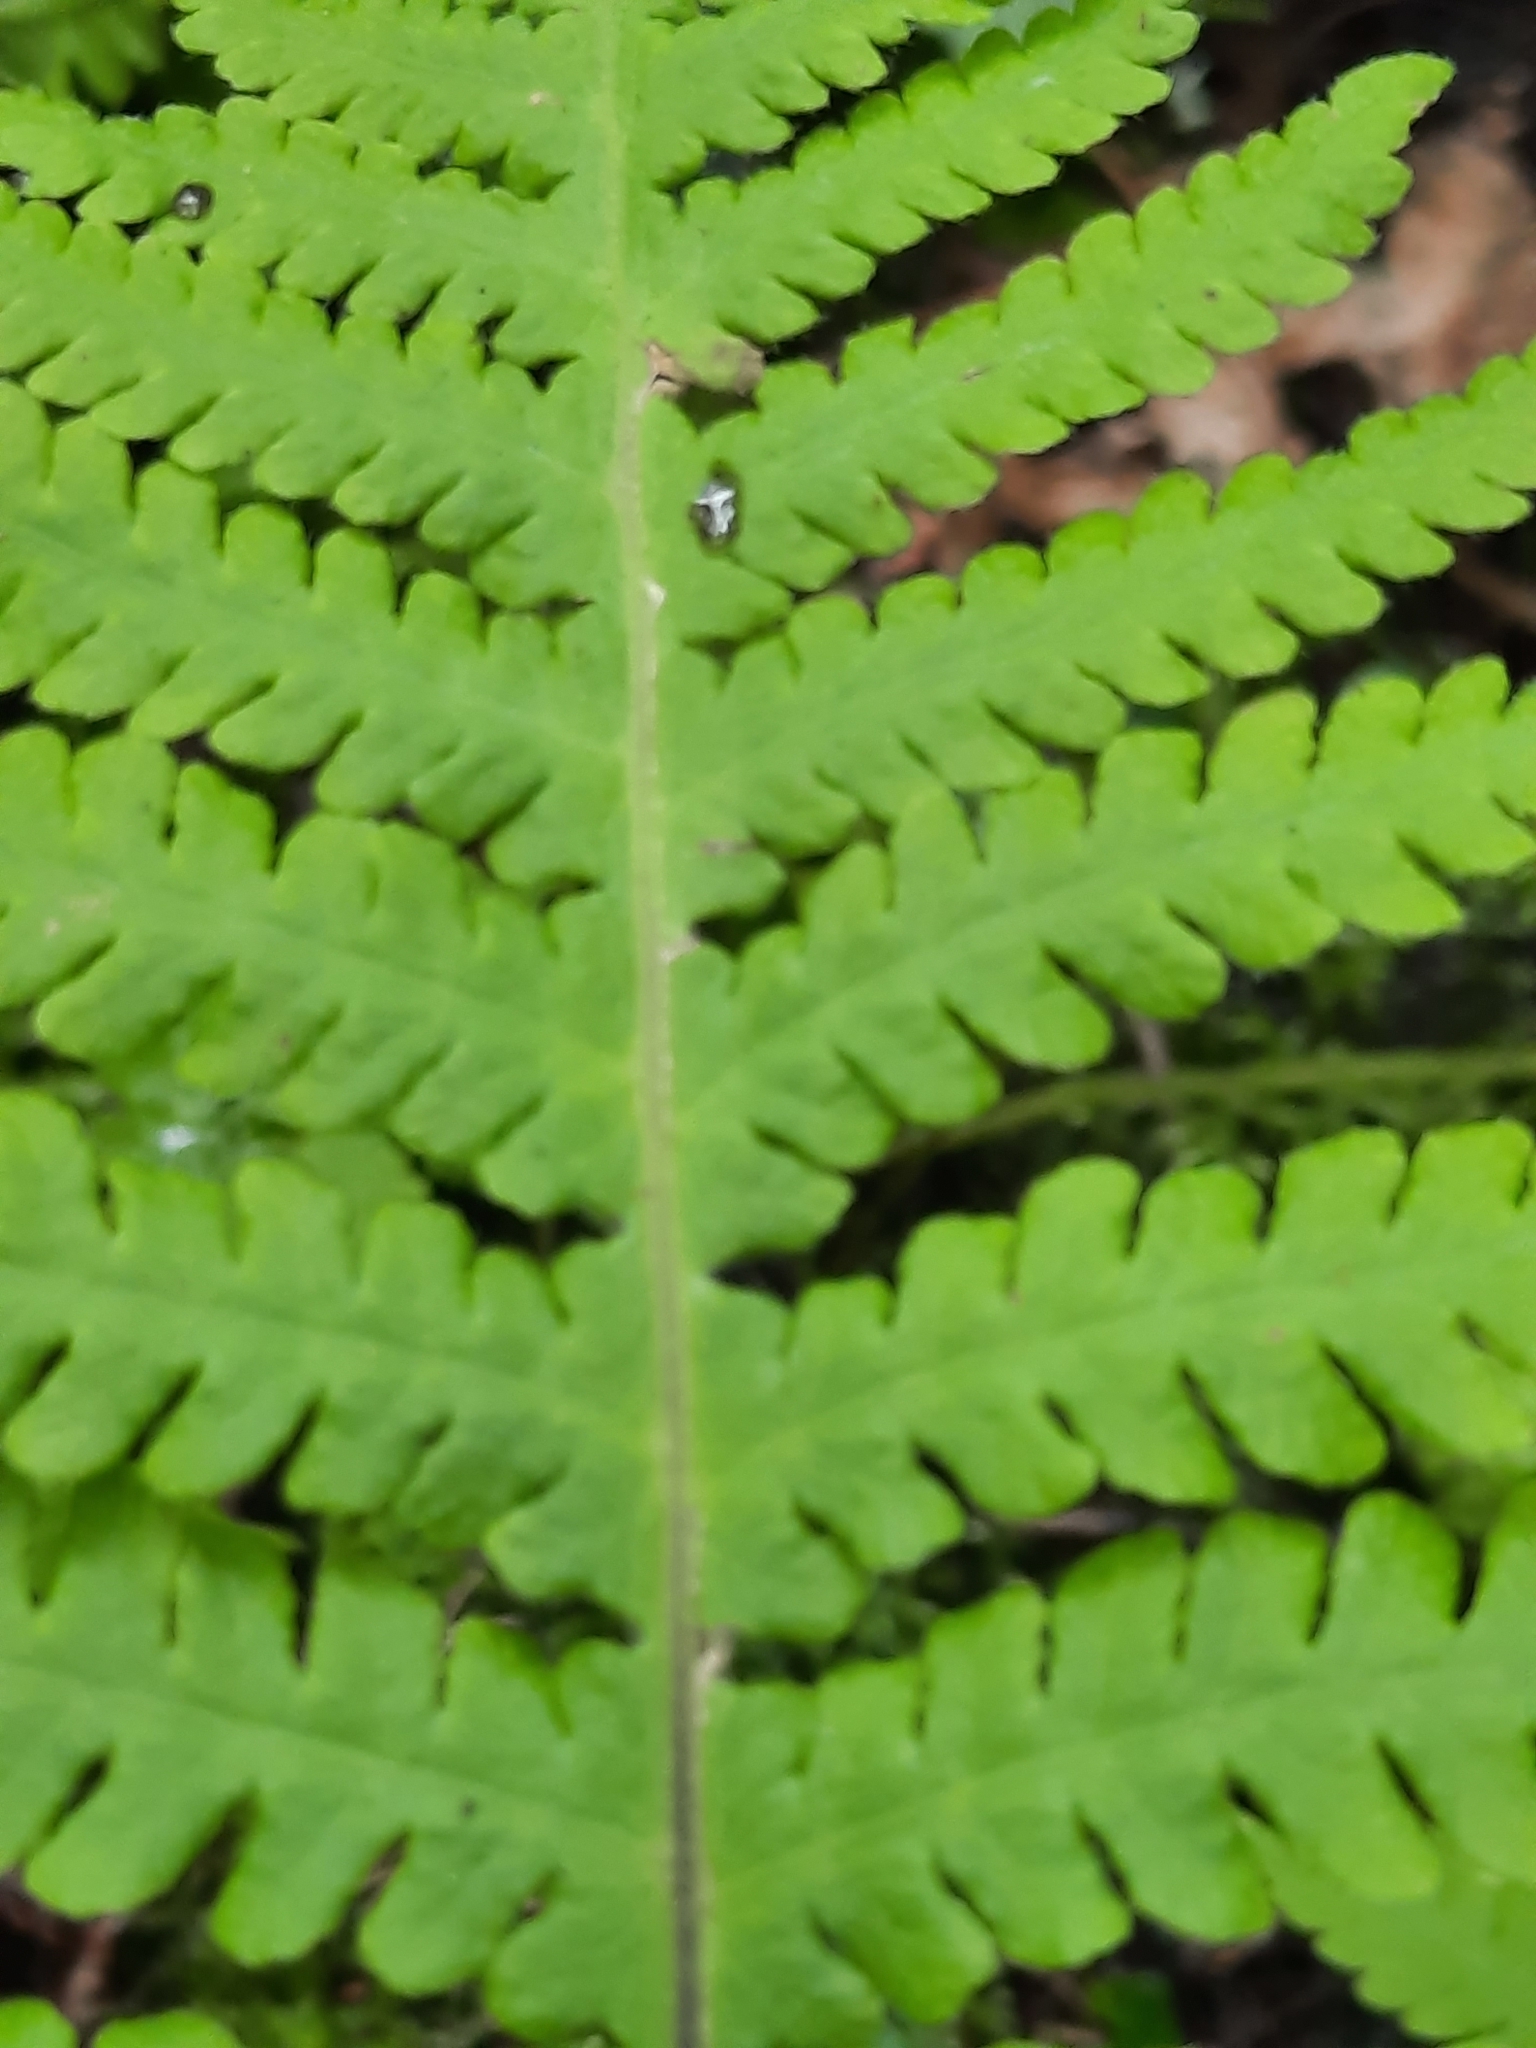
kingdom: Plantae
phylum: Tracheophyta
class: Polypodiopsida
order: Polypodiales
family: Thelypteridaceae
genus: Phegopteris
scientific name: Phegopteris connectilis
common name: Beech fern
